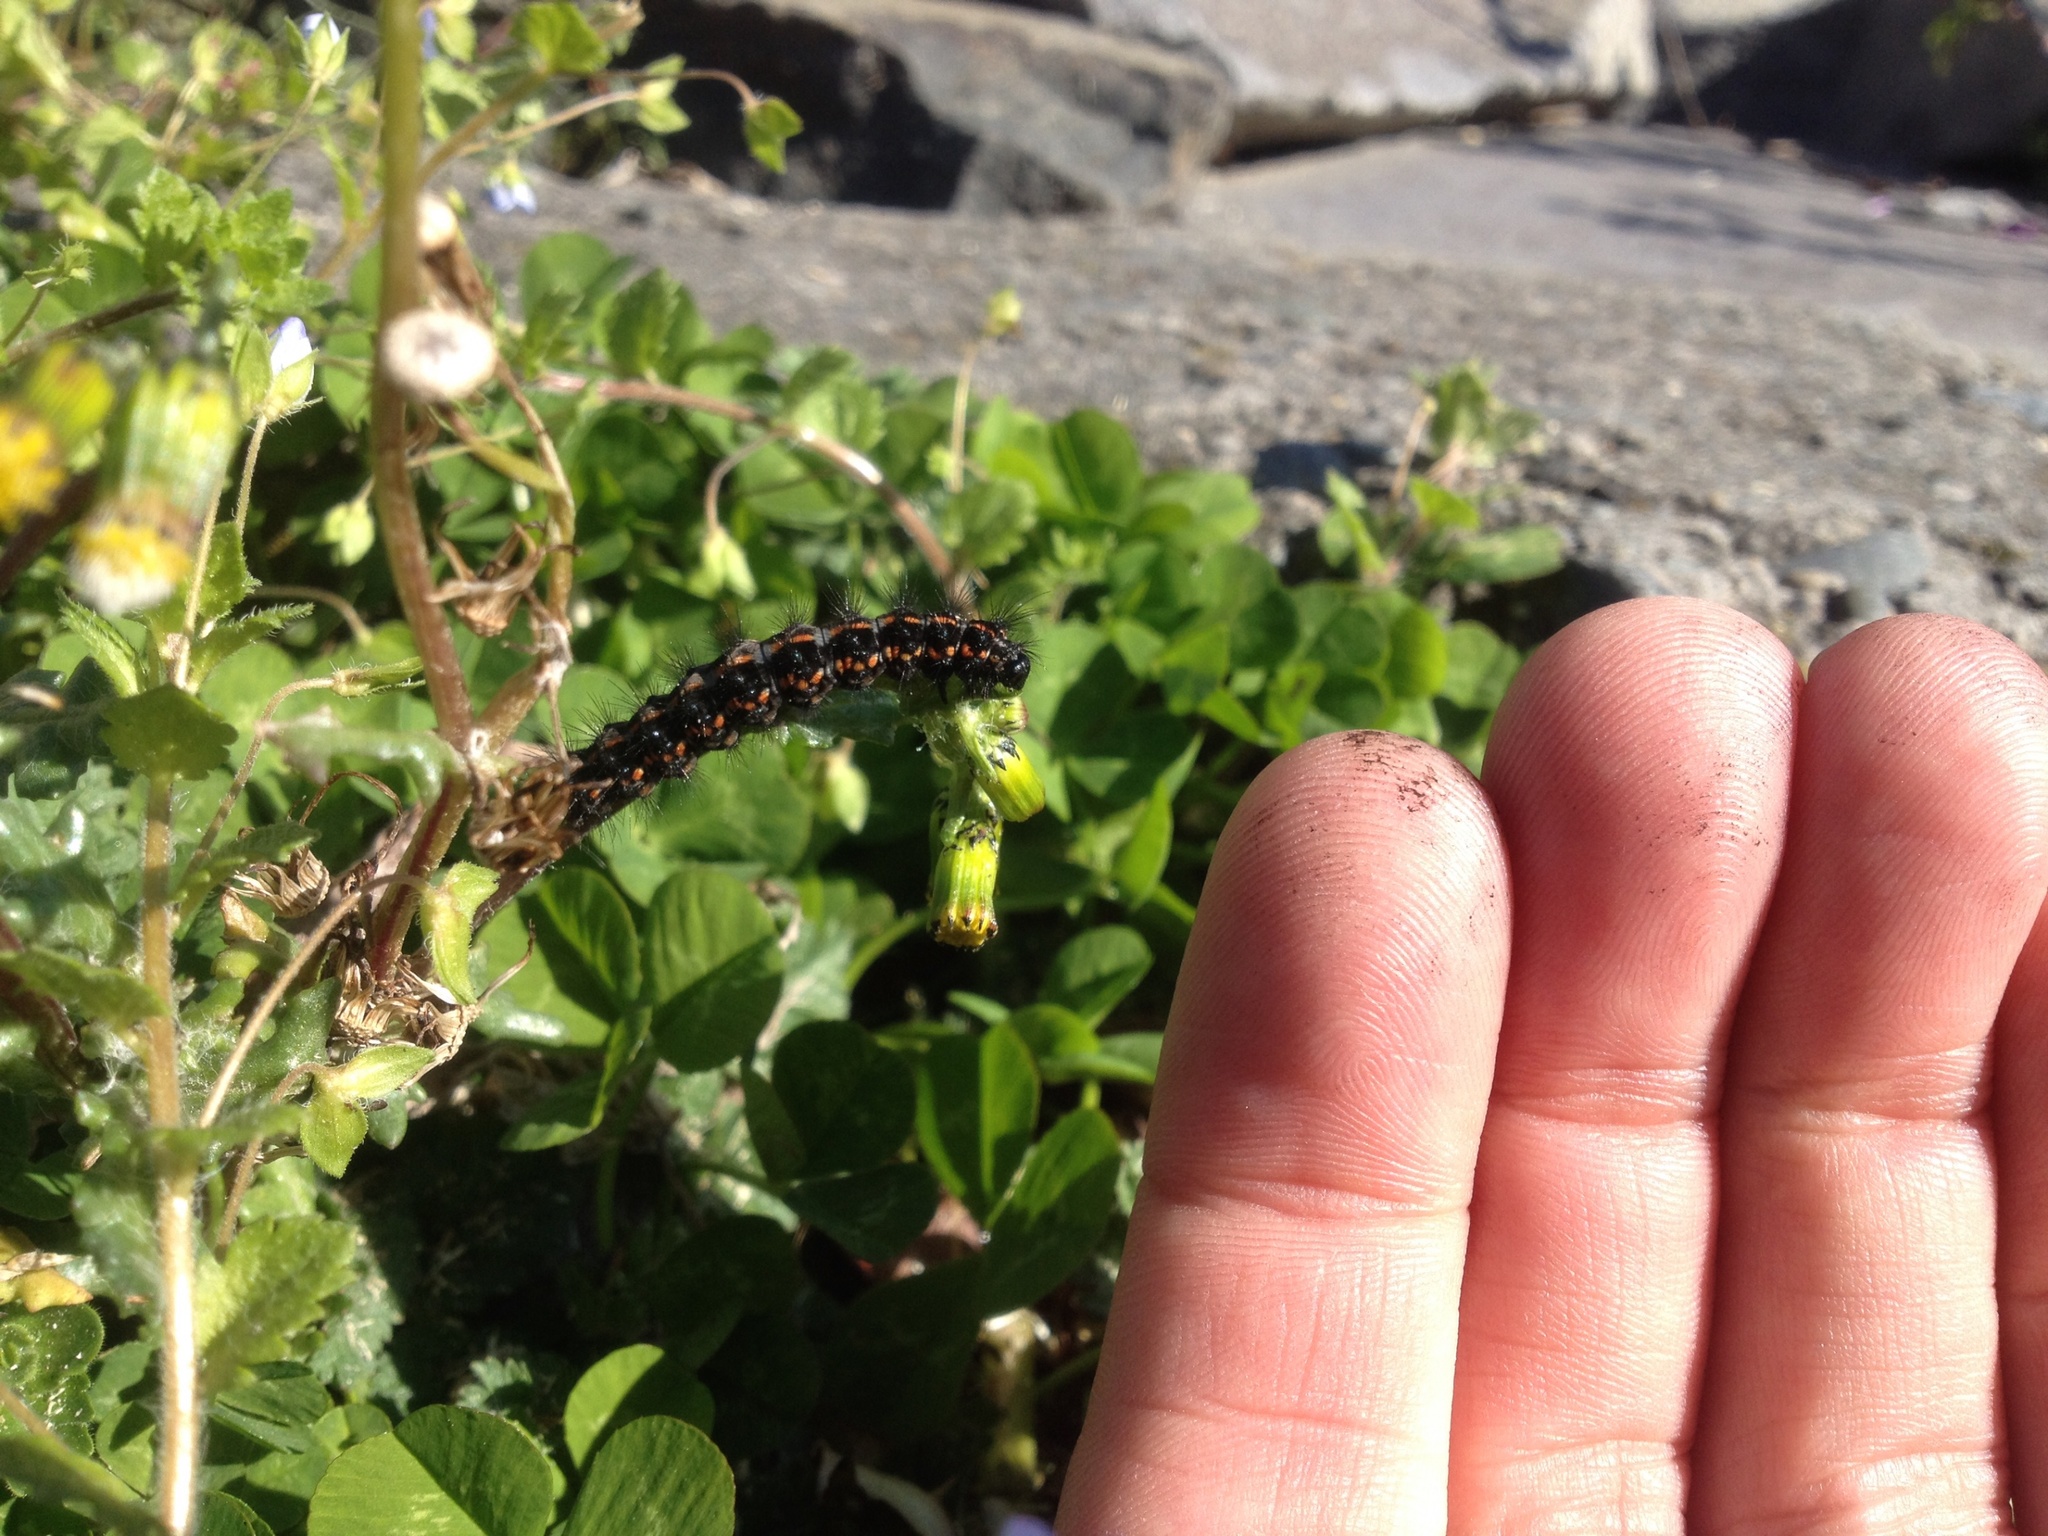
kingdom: Animalia
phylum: Arthropoda
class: Insecta
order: Lepidoptera
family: Erebidae
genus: Nyctemera
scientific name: Nyctemera annulatum
